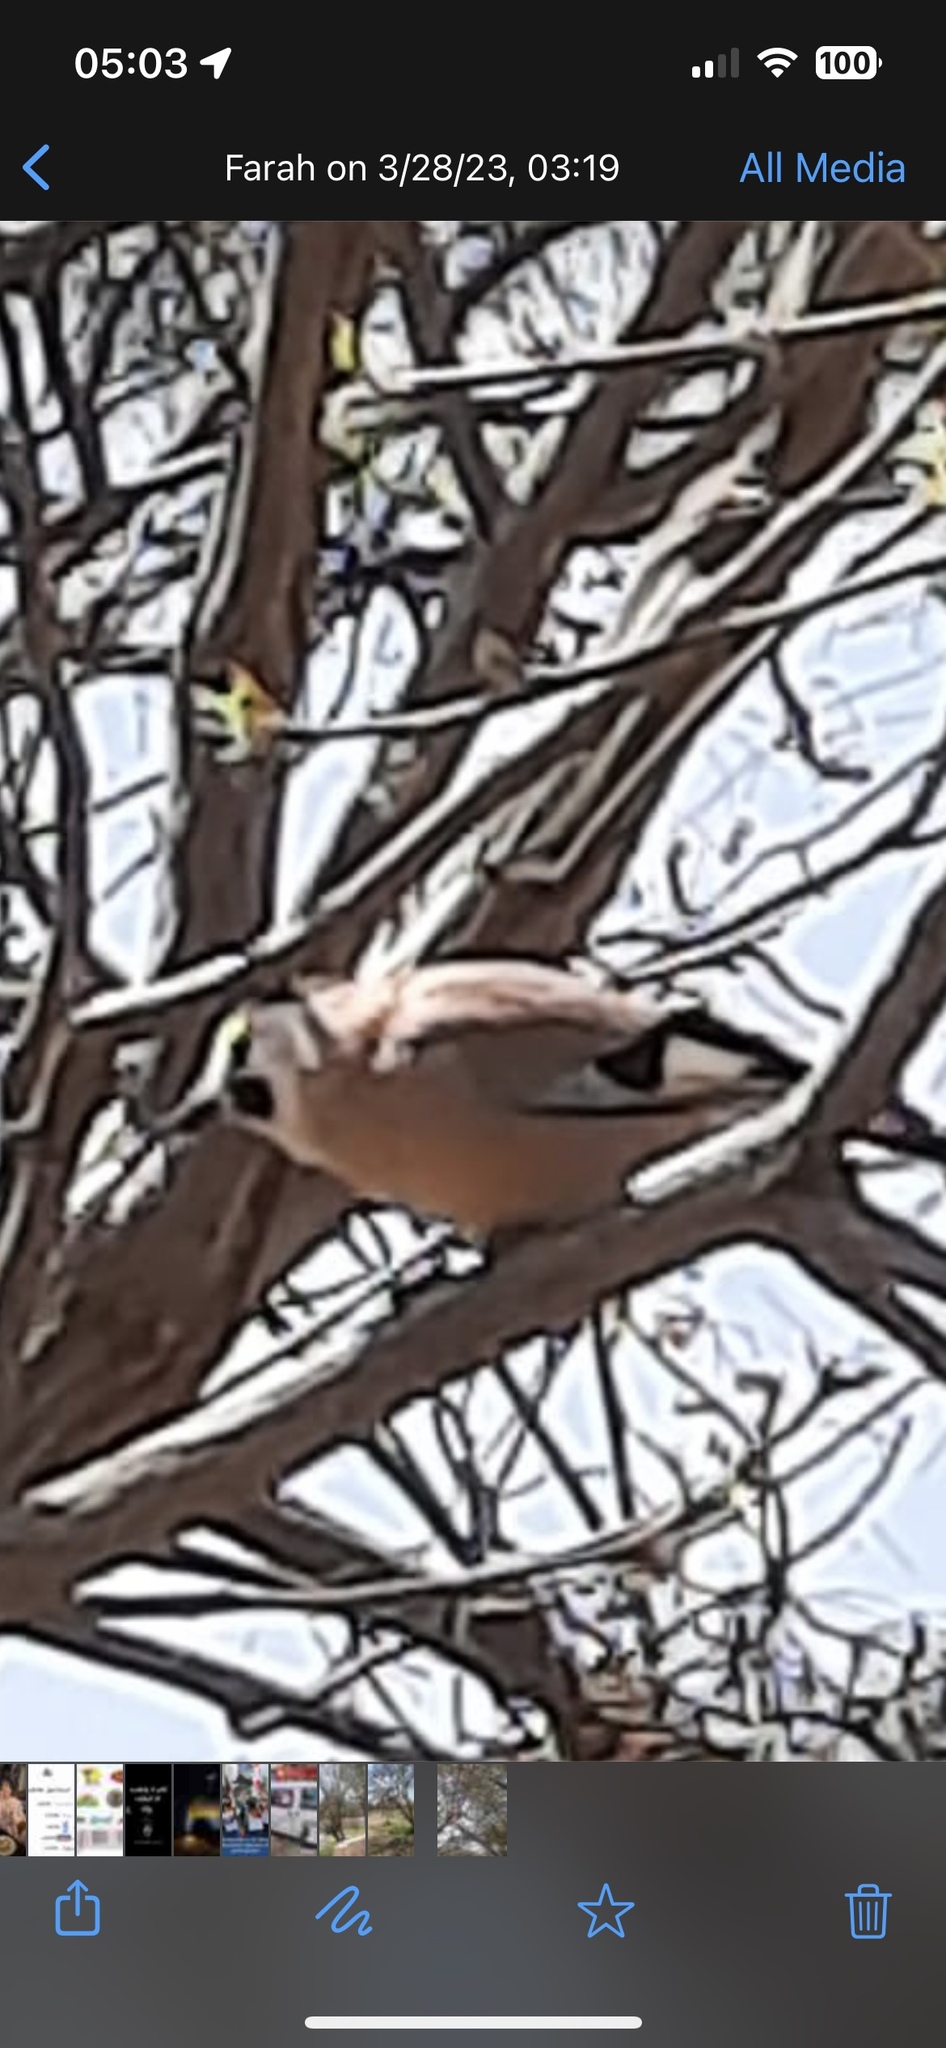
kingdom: Animalia
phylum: Chordata
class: Aves
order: Passeriformes
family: Corvidae
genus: Garrulus
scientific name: Garrulus glandarius
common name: Eurasian jay
